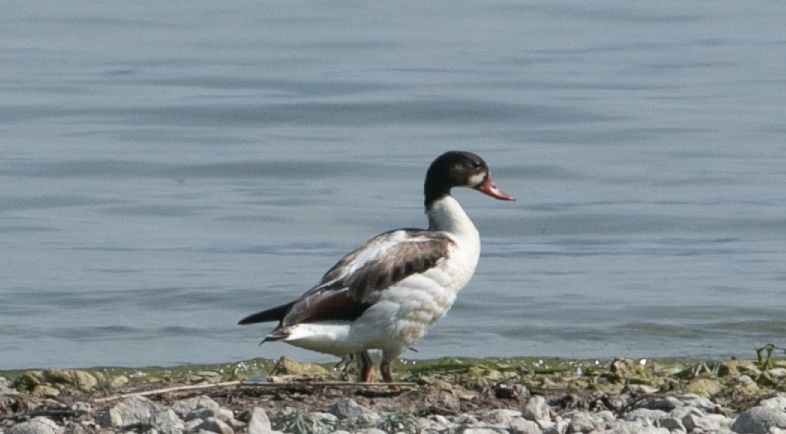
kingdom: Animalia
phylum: Chordata
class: Aves
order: Anseriformes
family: Anatidae
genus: Tadorna
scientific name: Tadorna tadorna
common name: Common shelduck
